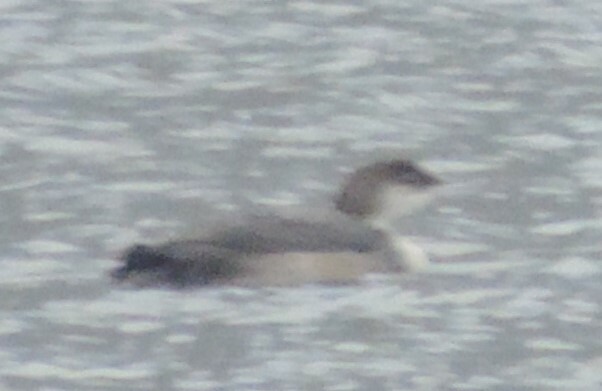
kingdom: Animalia
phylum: Chordata
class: Aves
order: Gaviiformes
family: Gaviidae
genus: Gavia
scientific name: Gavia immer
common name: Common loon
